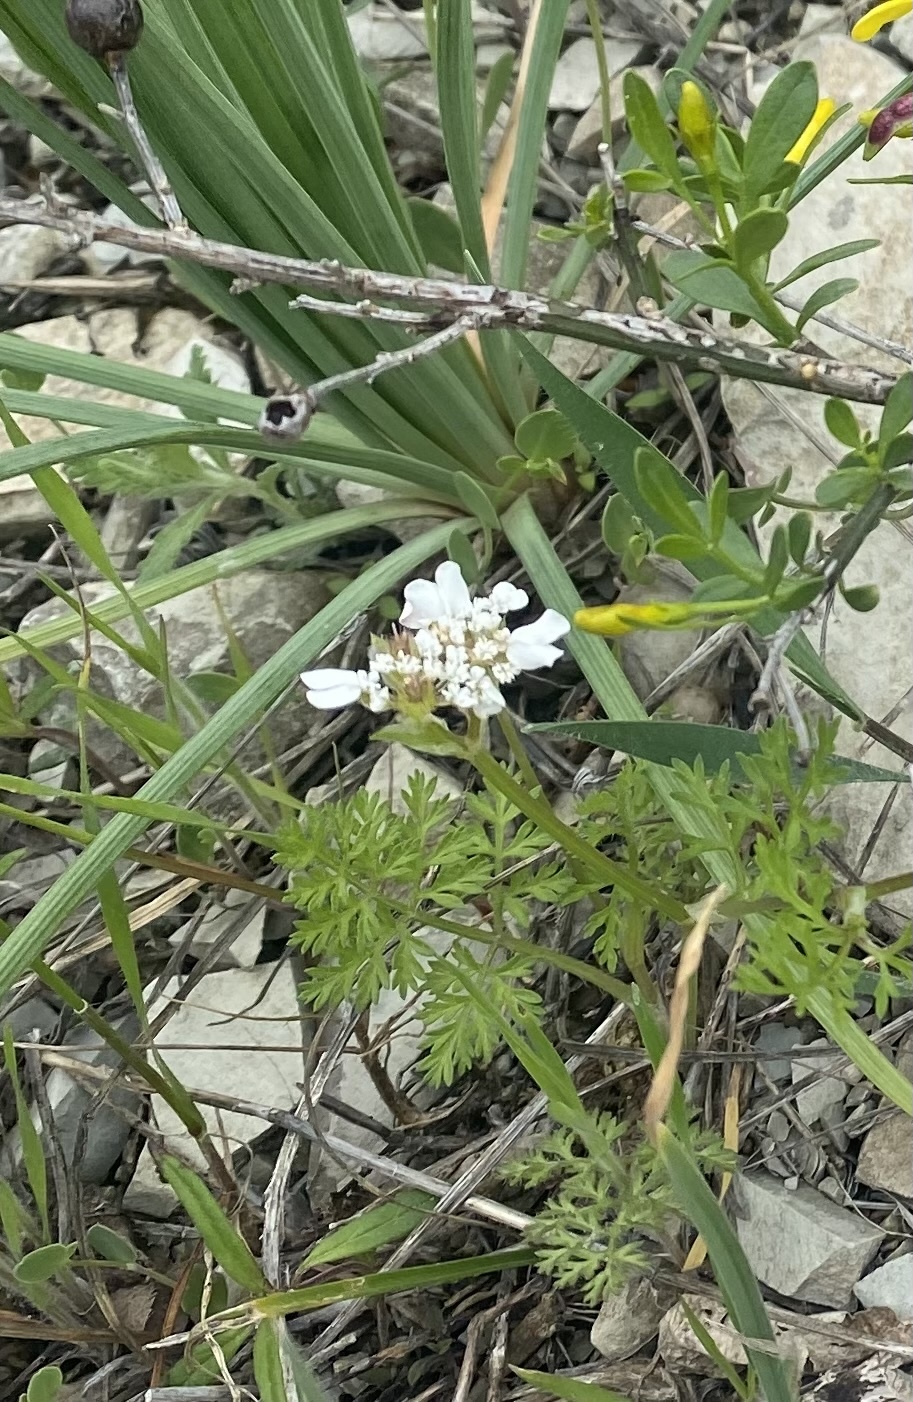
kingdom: Plantae
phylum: Tracheophyta
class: Magnoliopsida
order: Apiales
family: Apiaceae
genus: Orlaya
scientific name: Orlaya daucoides
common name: Flat-fruit orlaya
